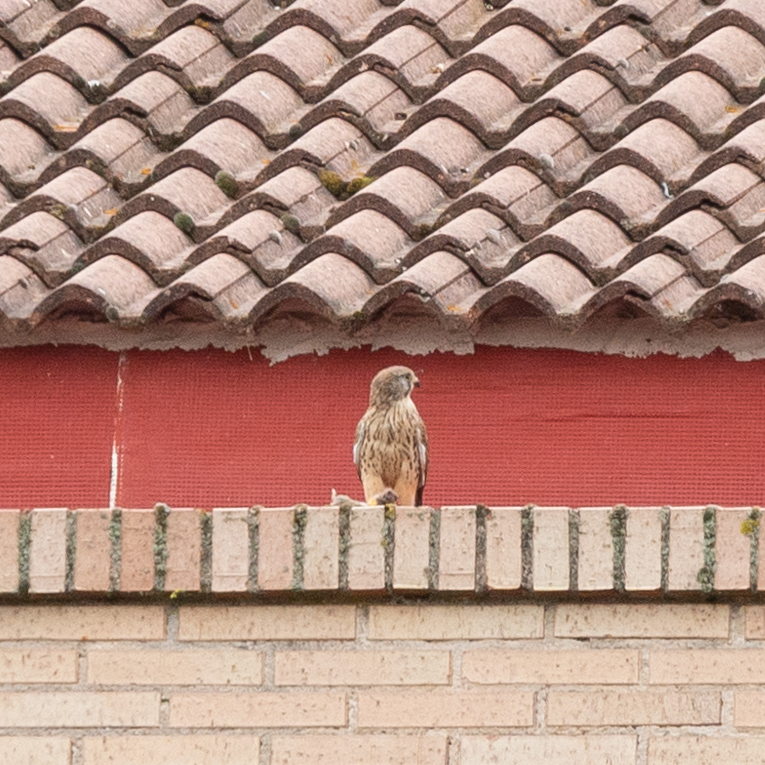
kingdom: Animalia
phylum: Chordata
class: Aves
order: Falconiformes
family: Falconidae
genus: Falco
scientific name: Falco tinnunculus
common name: Common kestrel
